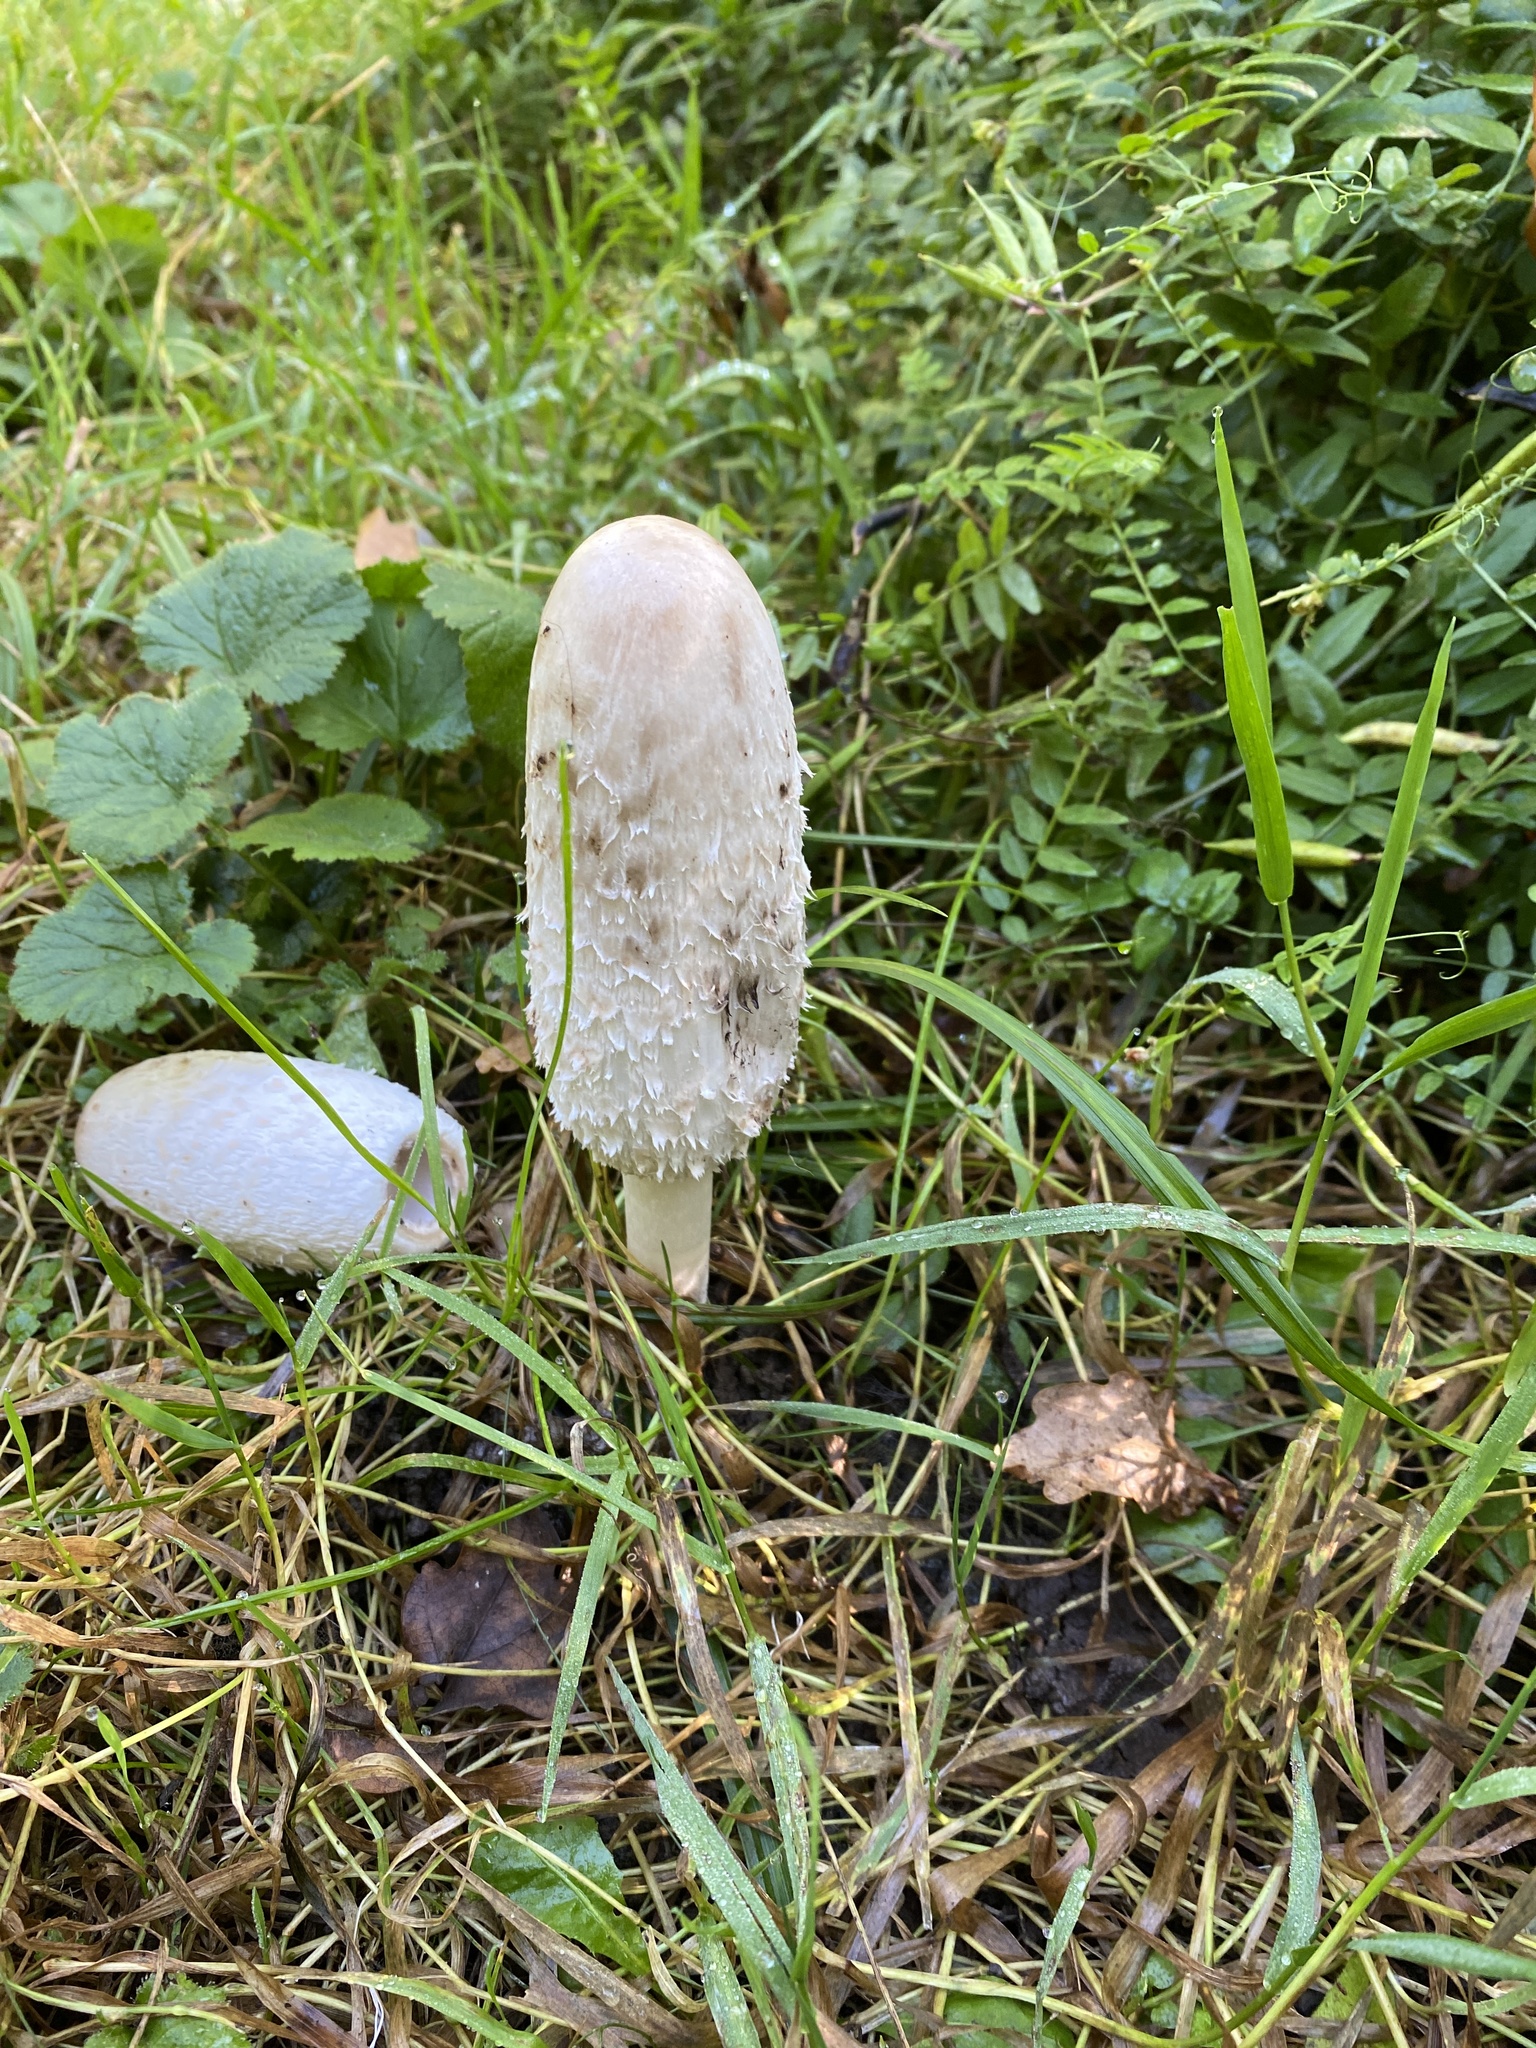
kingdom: Fungi
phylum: Basidiomycota
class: Agaricomycetes
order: Agaricales
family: Agaricaceae
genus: Coprinus
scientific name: Coprinus comatus
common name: Lawyer's wig
